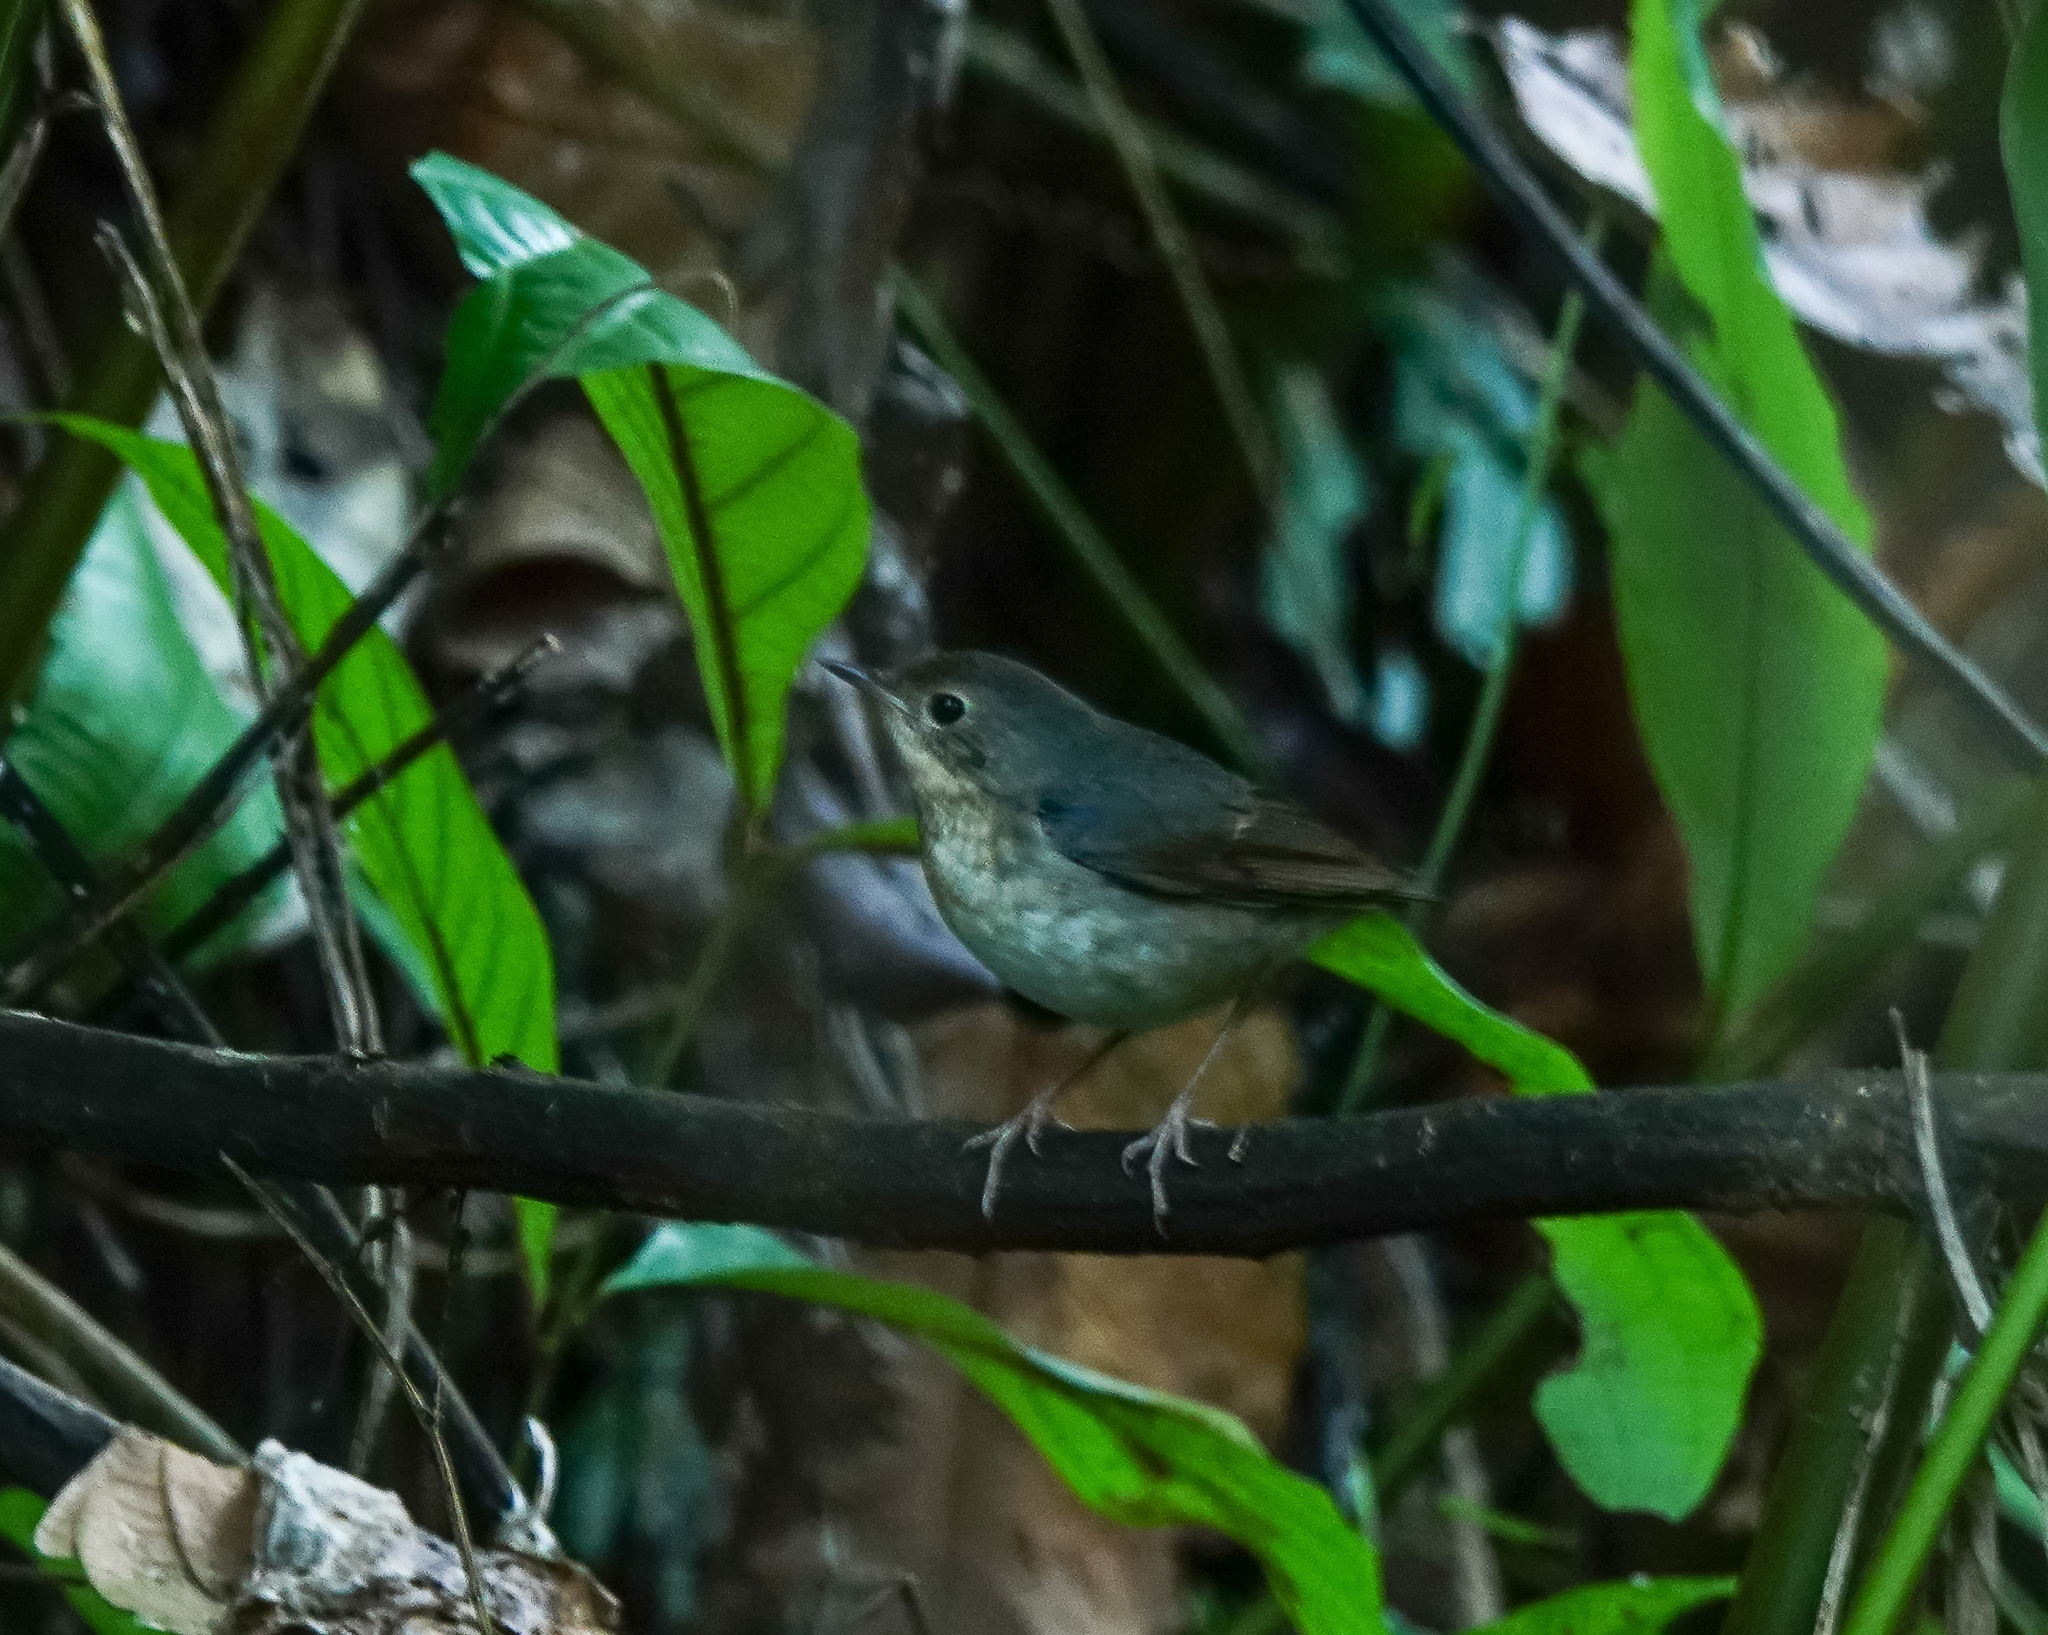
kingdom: Animalia
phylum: Chordata
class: Aves
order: Passeriformes
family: Muscicapidae
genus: Luscinia
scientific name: Luscinia cyane
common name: Siberian blue robin
